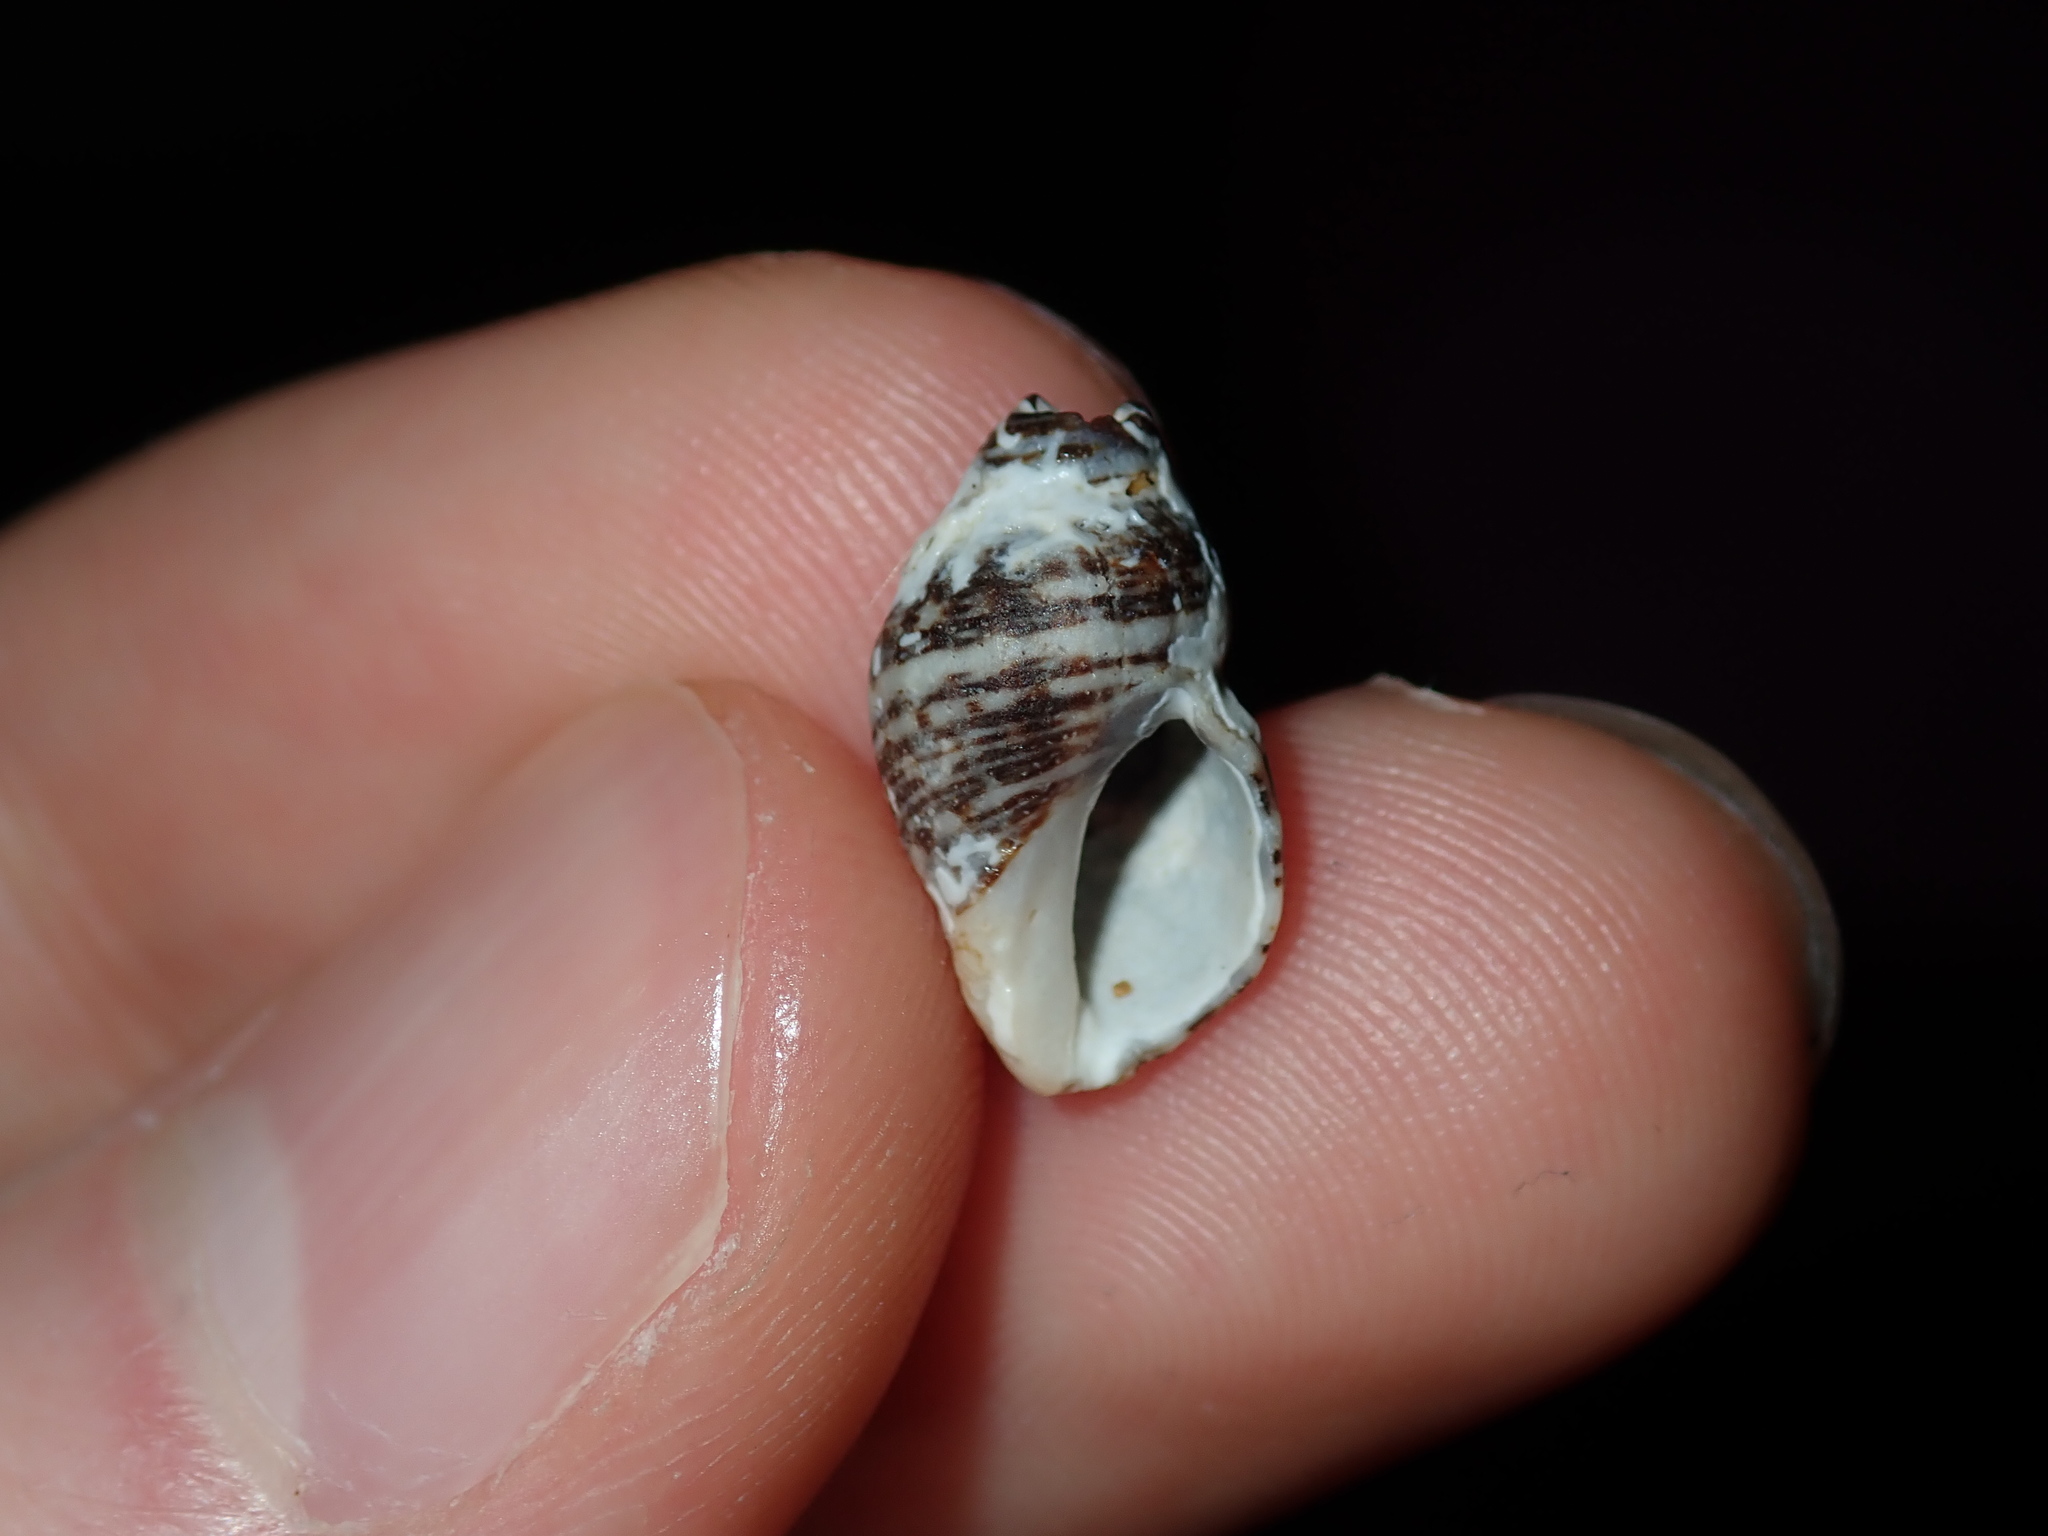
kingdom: Animalia
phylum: Mollusca
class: Gastropoda
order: Neogastropoda
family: Muricidae
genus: Agnewia
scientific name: Agnewia tritoniformis
